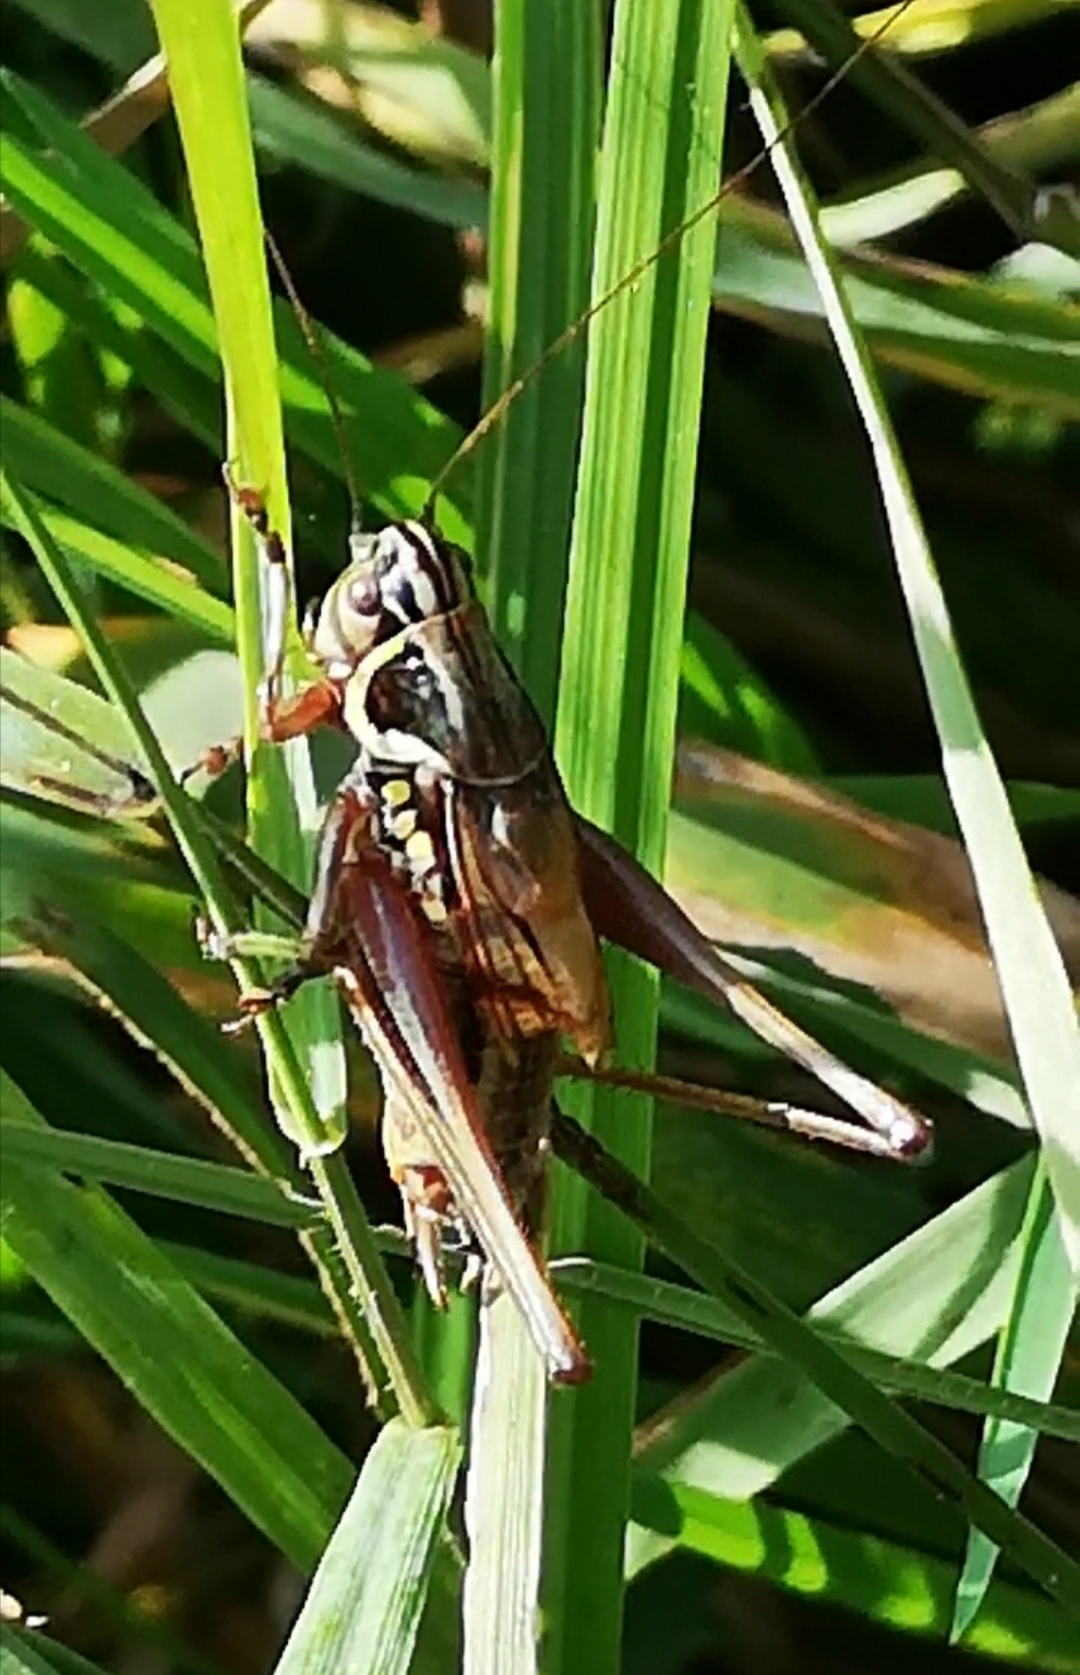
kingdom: Animalia
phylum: Arthropoda
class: Insecta
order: Orthoptera
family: Tettigoniidae
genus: Roeseliana
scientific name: Roeseliana roeselii
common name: Roesel's bush cricket
